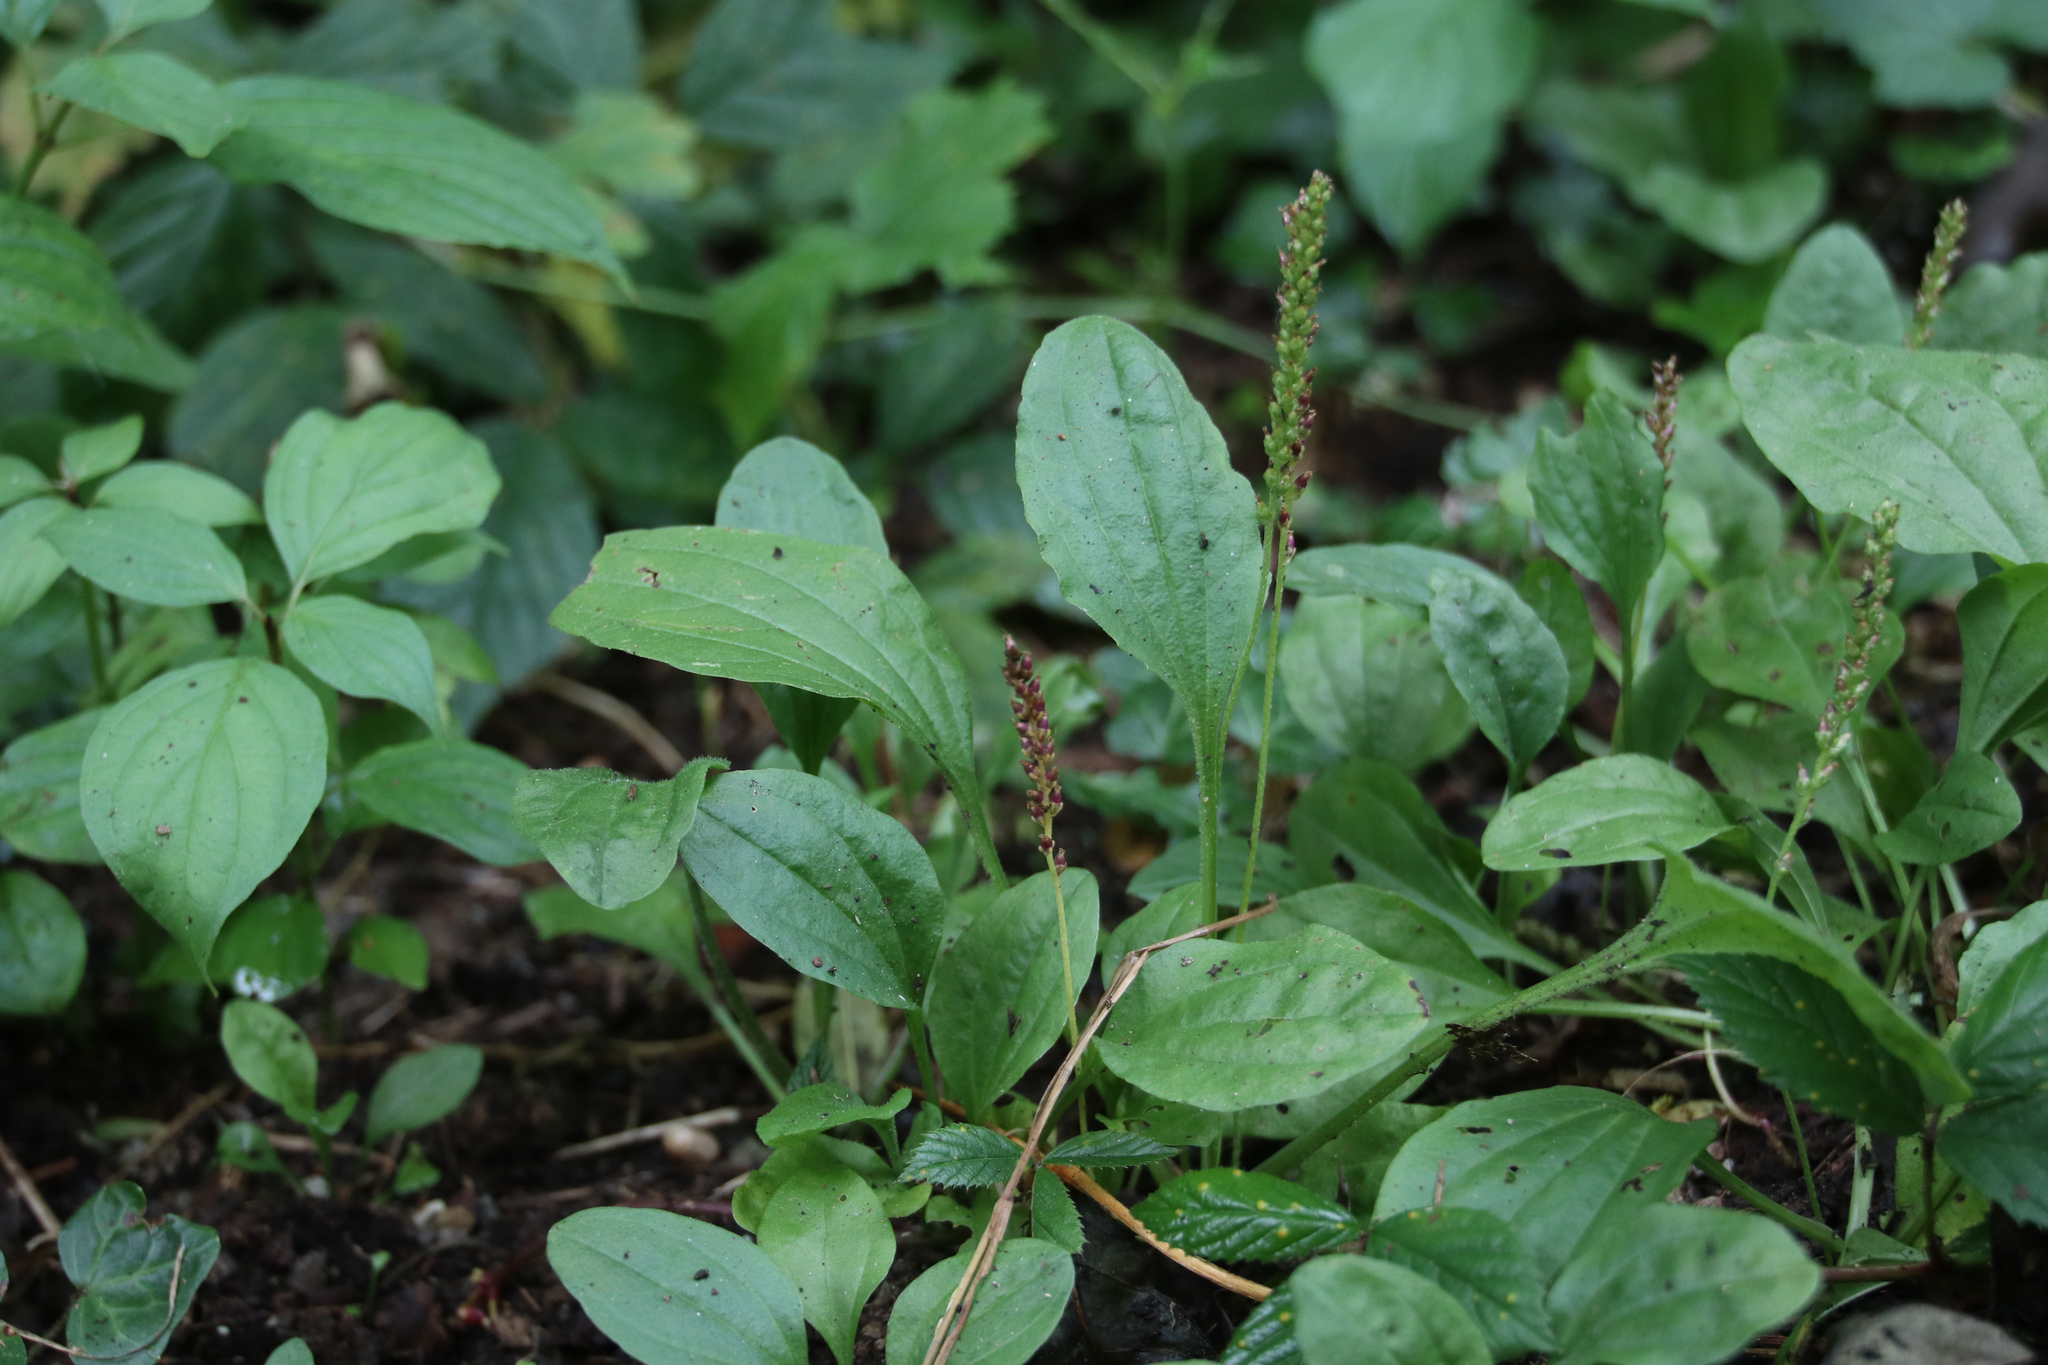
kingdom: Plantae
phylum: Tracheophyta
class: Magnoliopsida
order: Lamiales
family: Plantaginaceae
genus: Plantago
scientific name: Plantago major
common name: Common plantain
